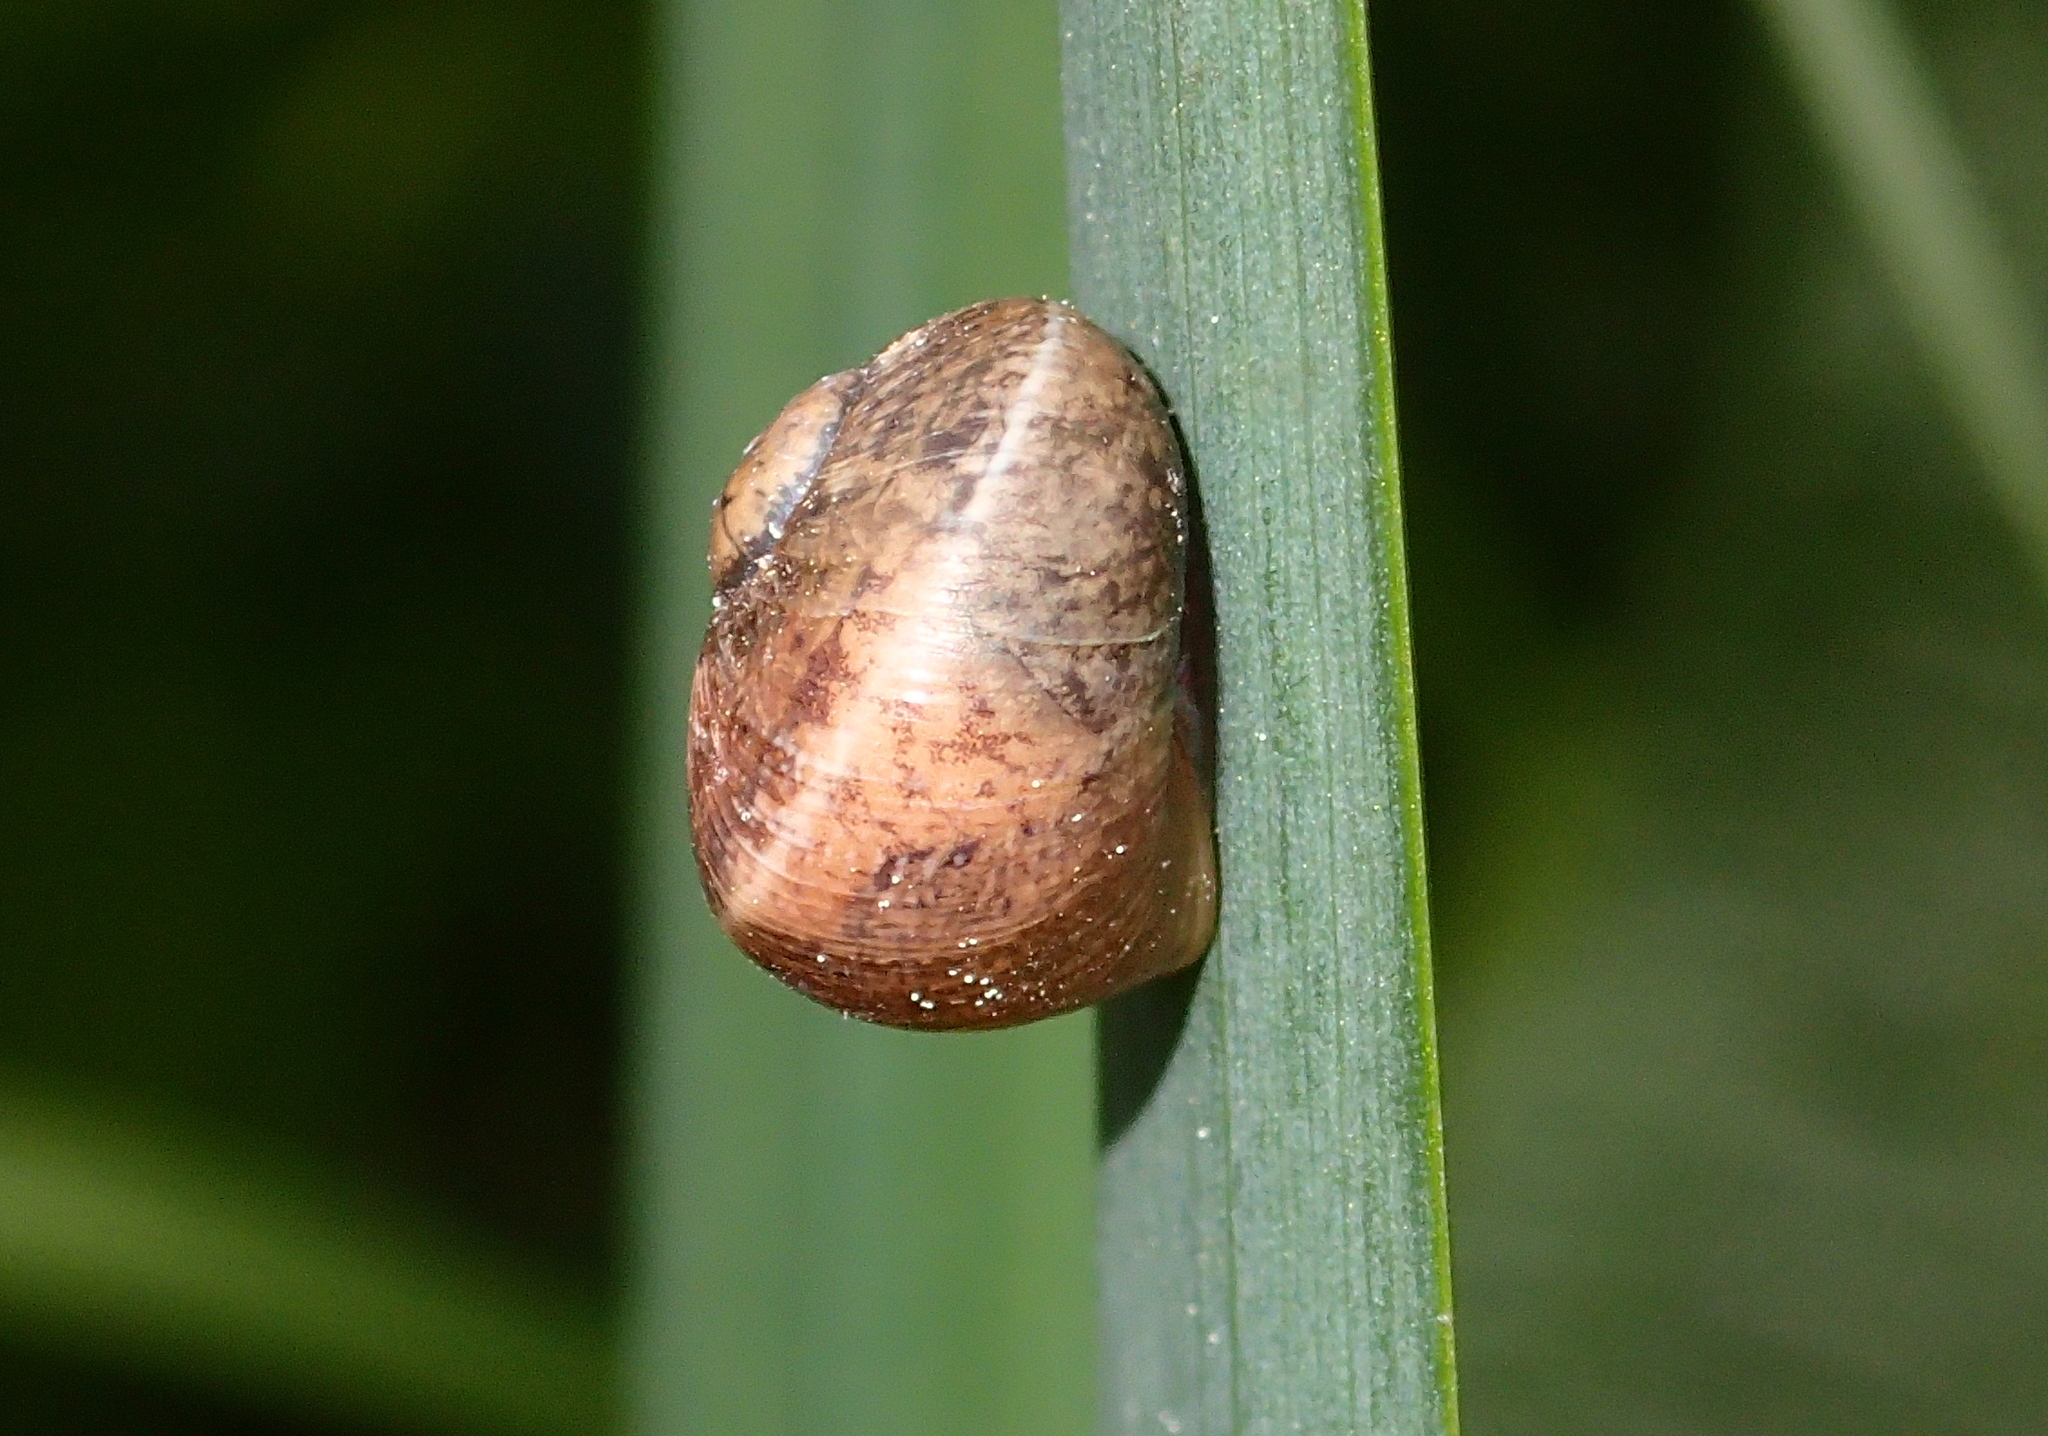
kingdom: Animalia
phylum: Mollusca
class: Gastropoda
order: Stylommatophora
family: Helicidae
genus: Cornu
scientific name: Cornu aspersum
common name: Brown garden snail
